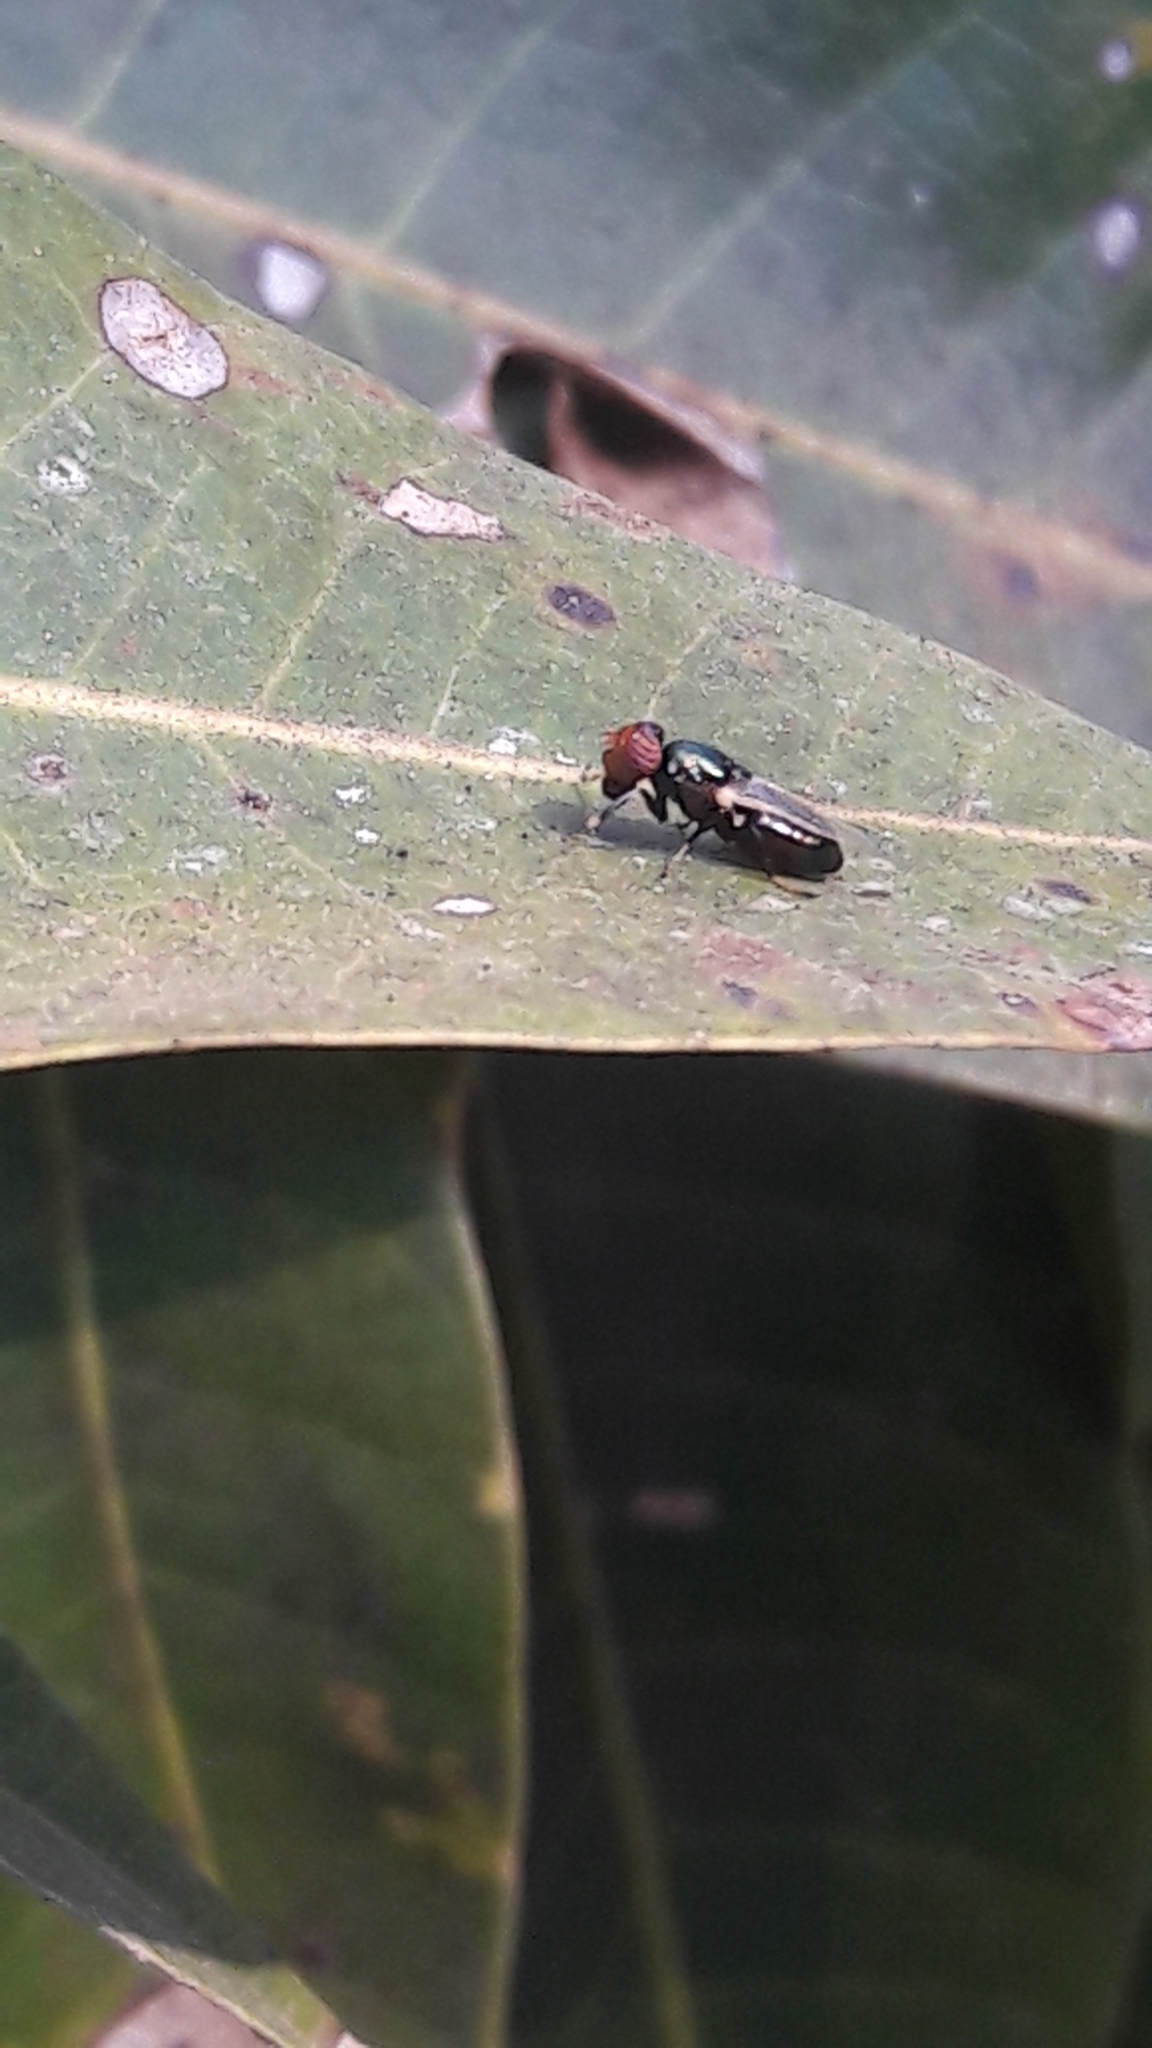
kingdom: Animalia
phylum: Arthropoda
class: Insecta
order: Diptera
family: Ulidiidae
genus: Physiphora
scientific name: Physiphora alceae
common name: Picture-winged fly
